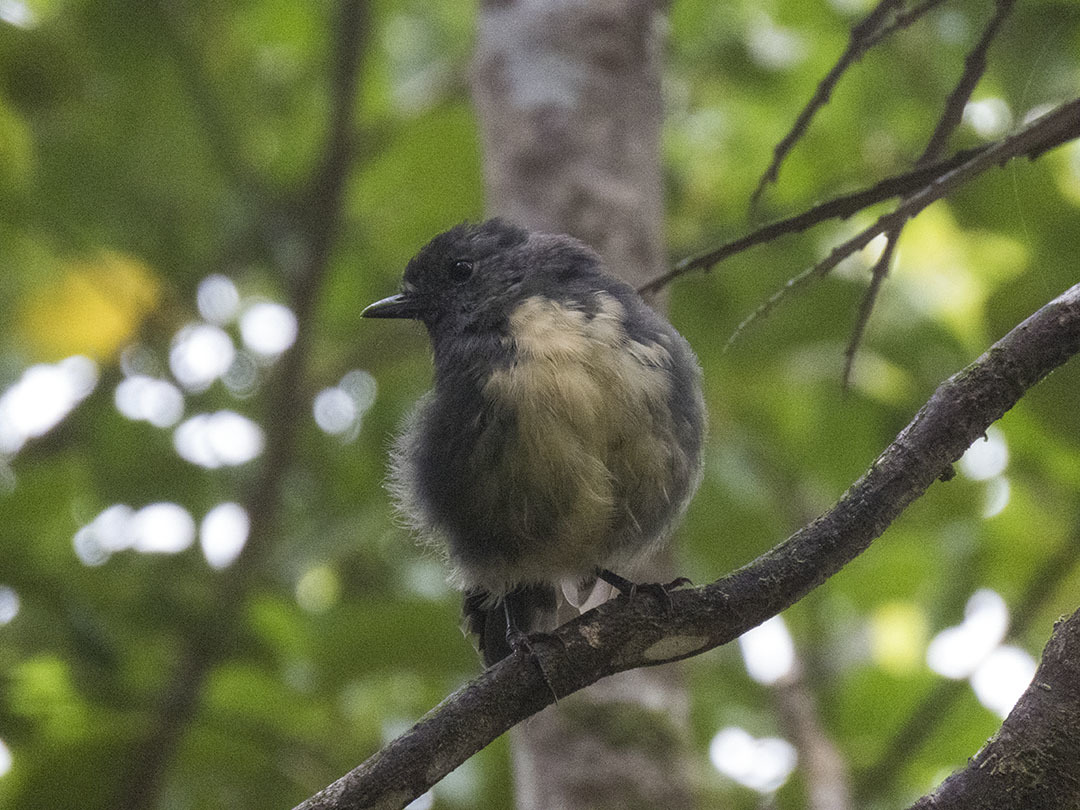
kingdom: Animalia
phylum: Chordata
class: Aves
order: Passeriformes
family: Petroicidae
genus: Petroica
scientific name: Petroica australis
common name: New zealand robin
